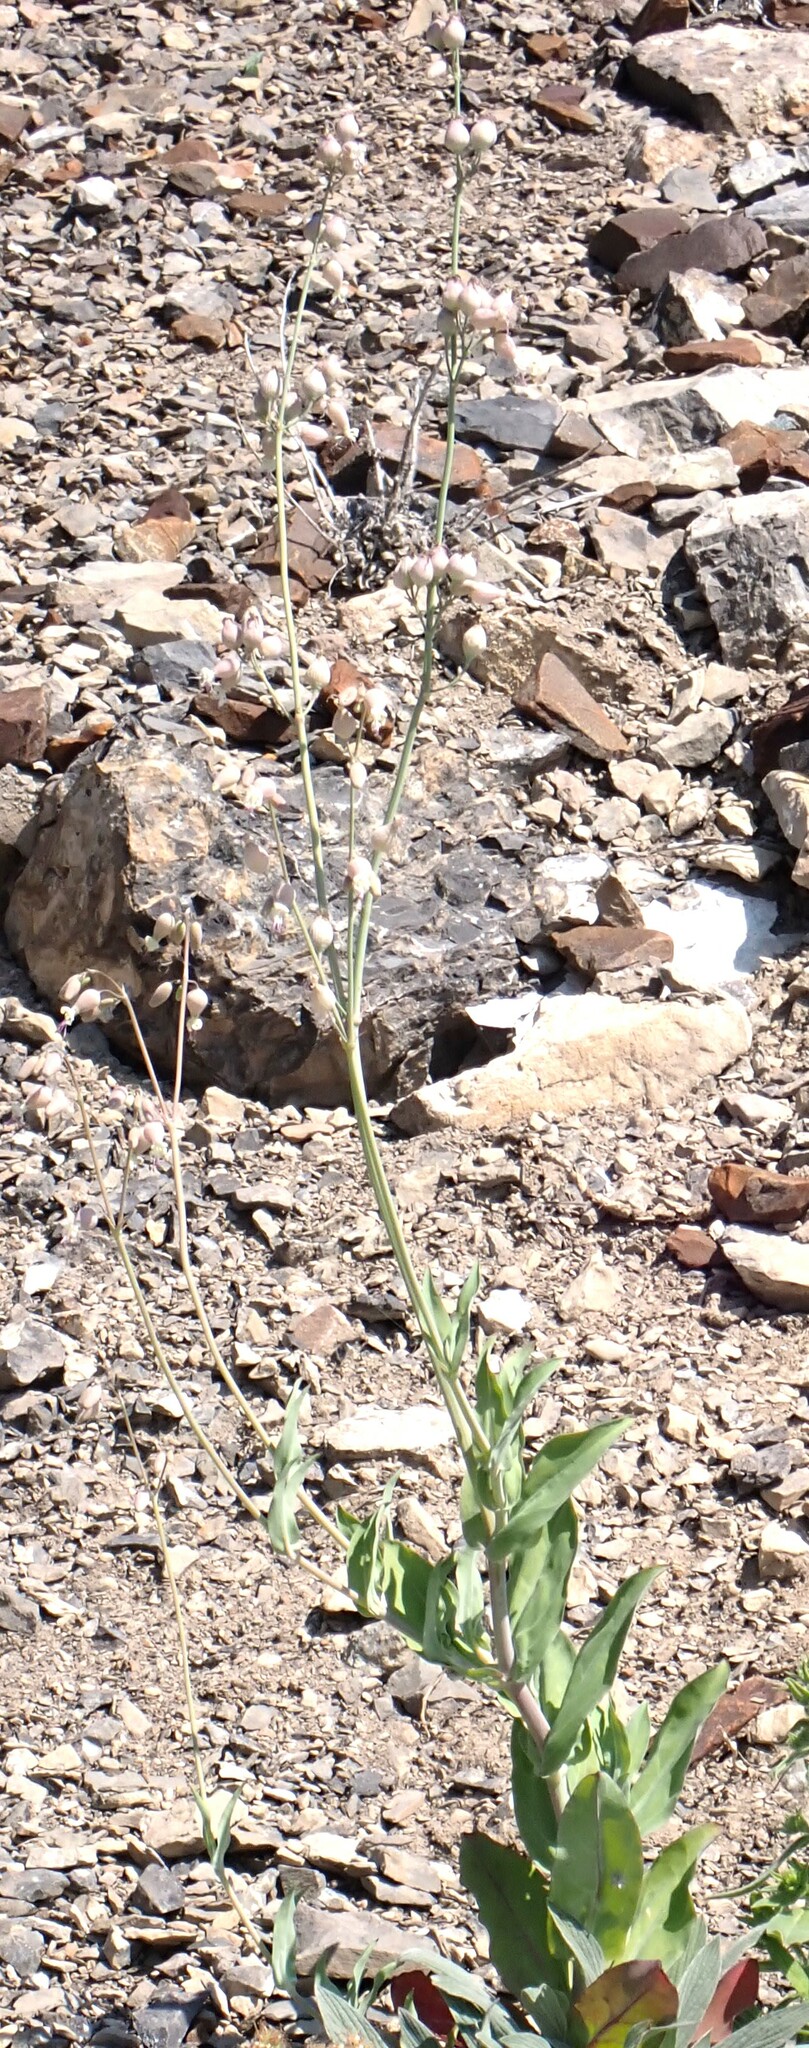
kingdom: Plantae
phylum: Tracheophyta
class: Magnoliopsida
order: Caryophyllales
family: Caryophyllaceae
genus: Silene
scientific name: Silene csereii
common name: Balkan catchfly
